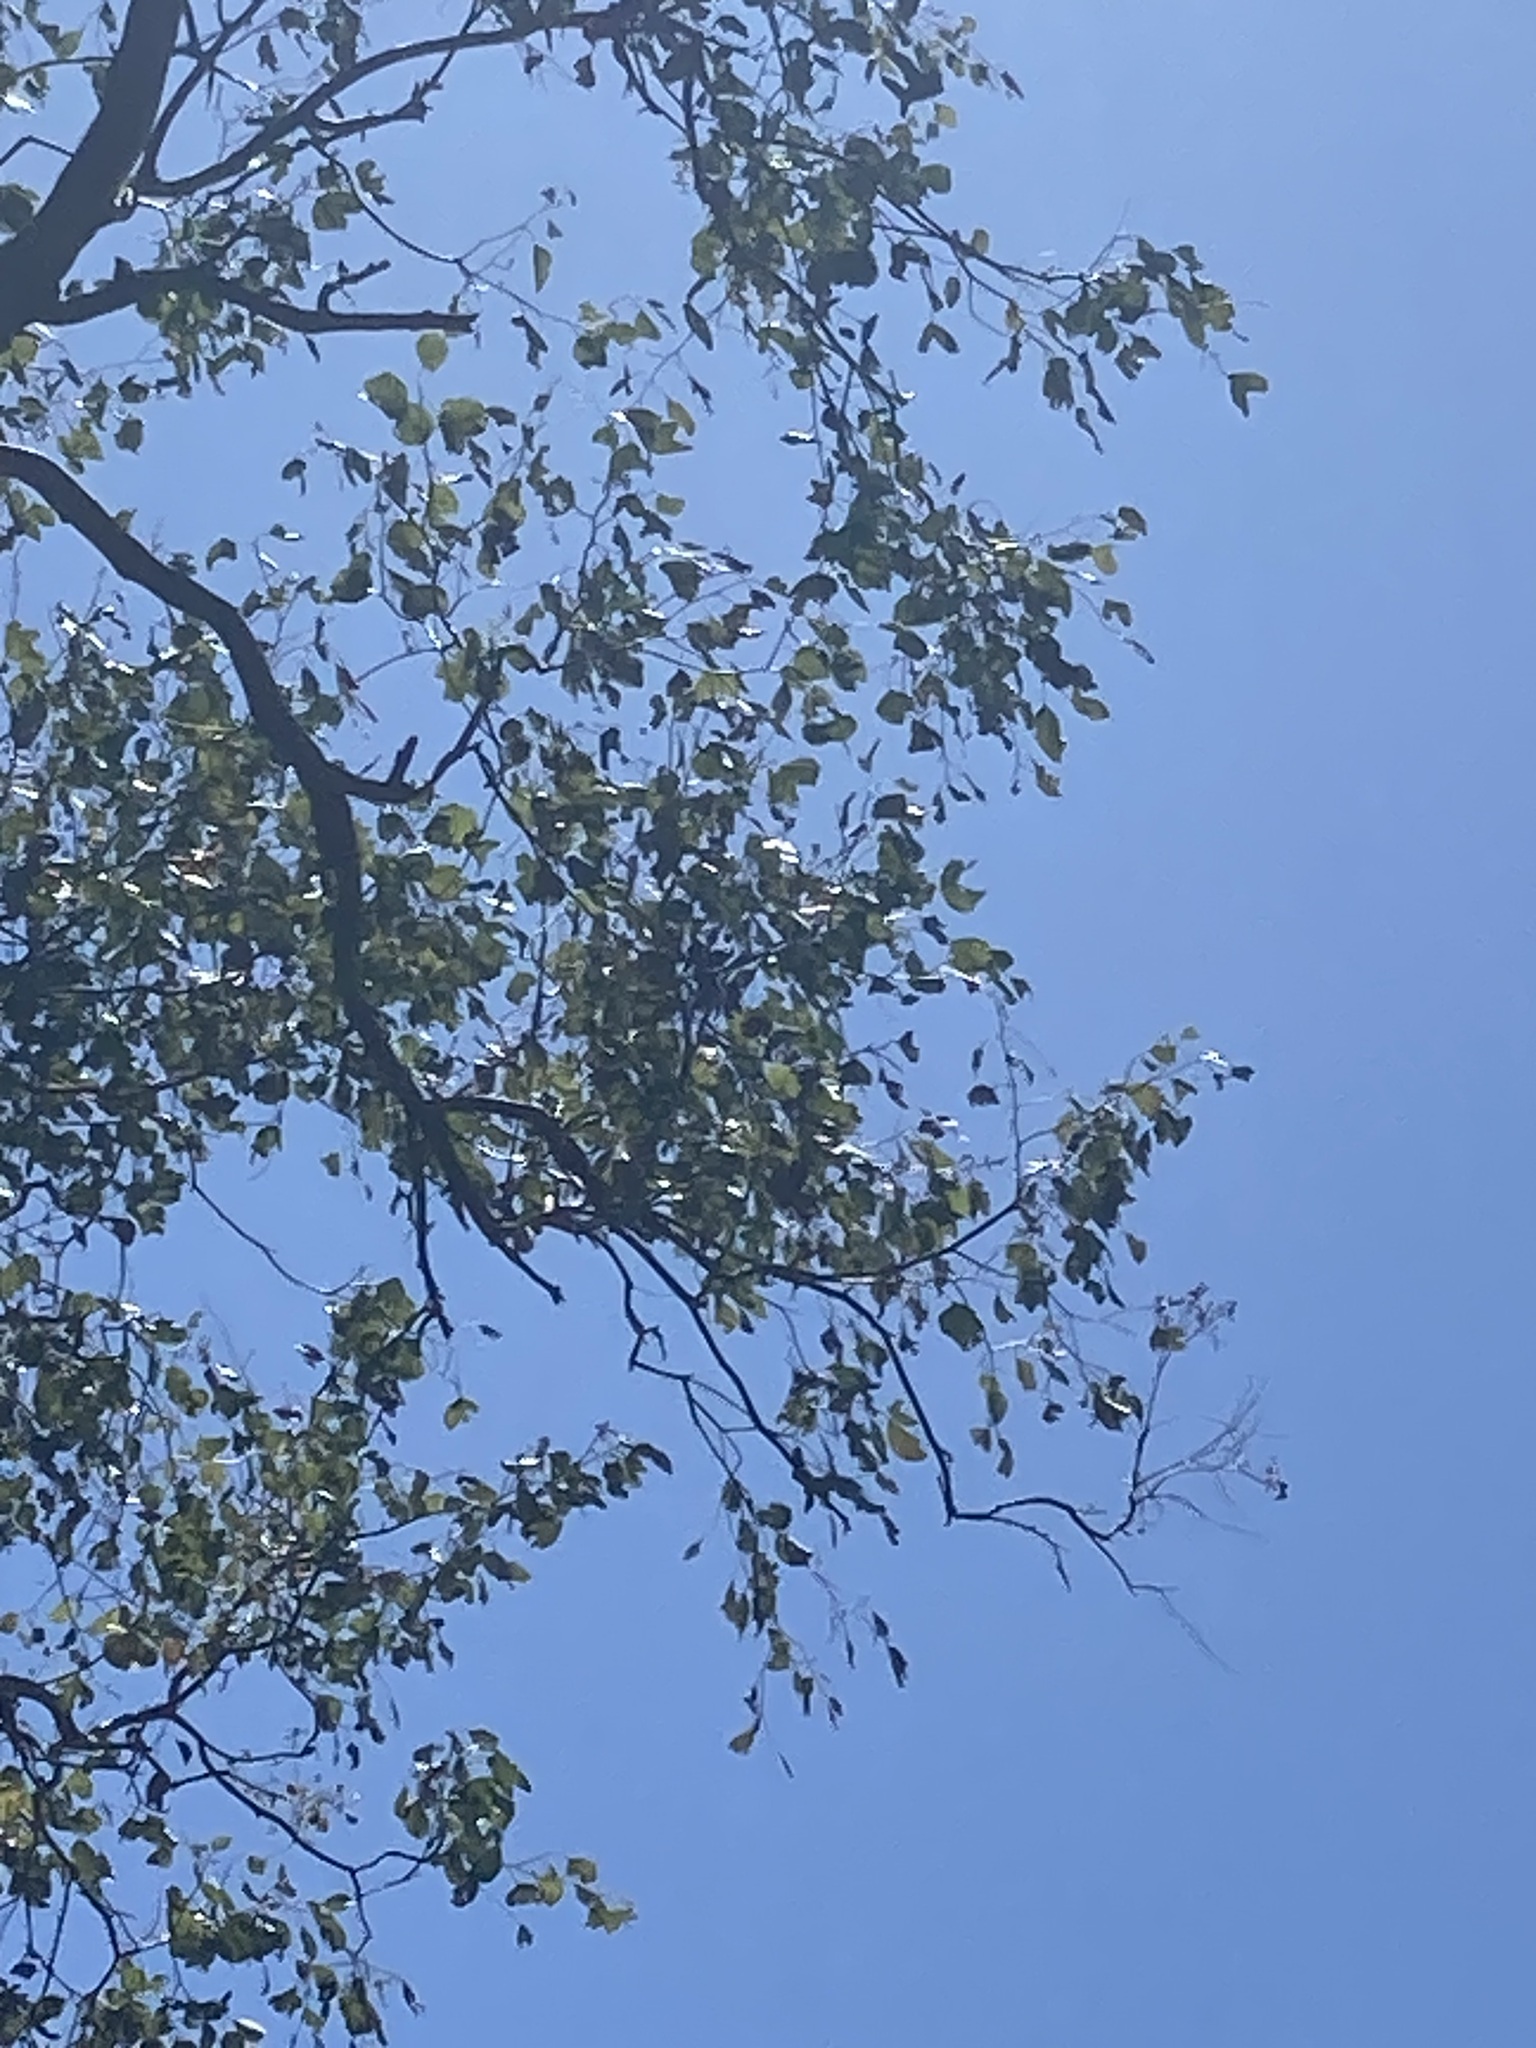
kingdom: Plantae
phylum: Tracheophyta
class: Magnoliopsida
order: Myrtales
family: Myrtaceae
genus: Eucalyptus
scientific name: Eucalyptus baueriana
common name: Round-leaf-box
